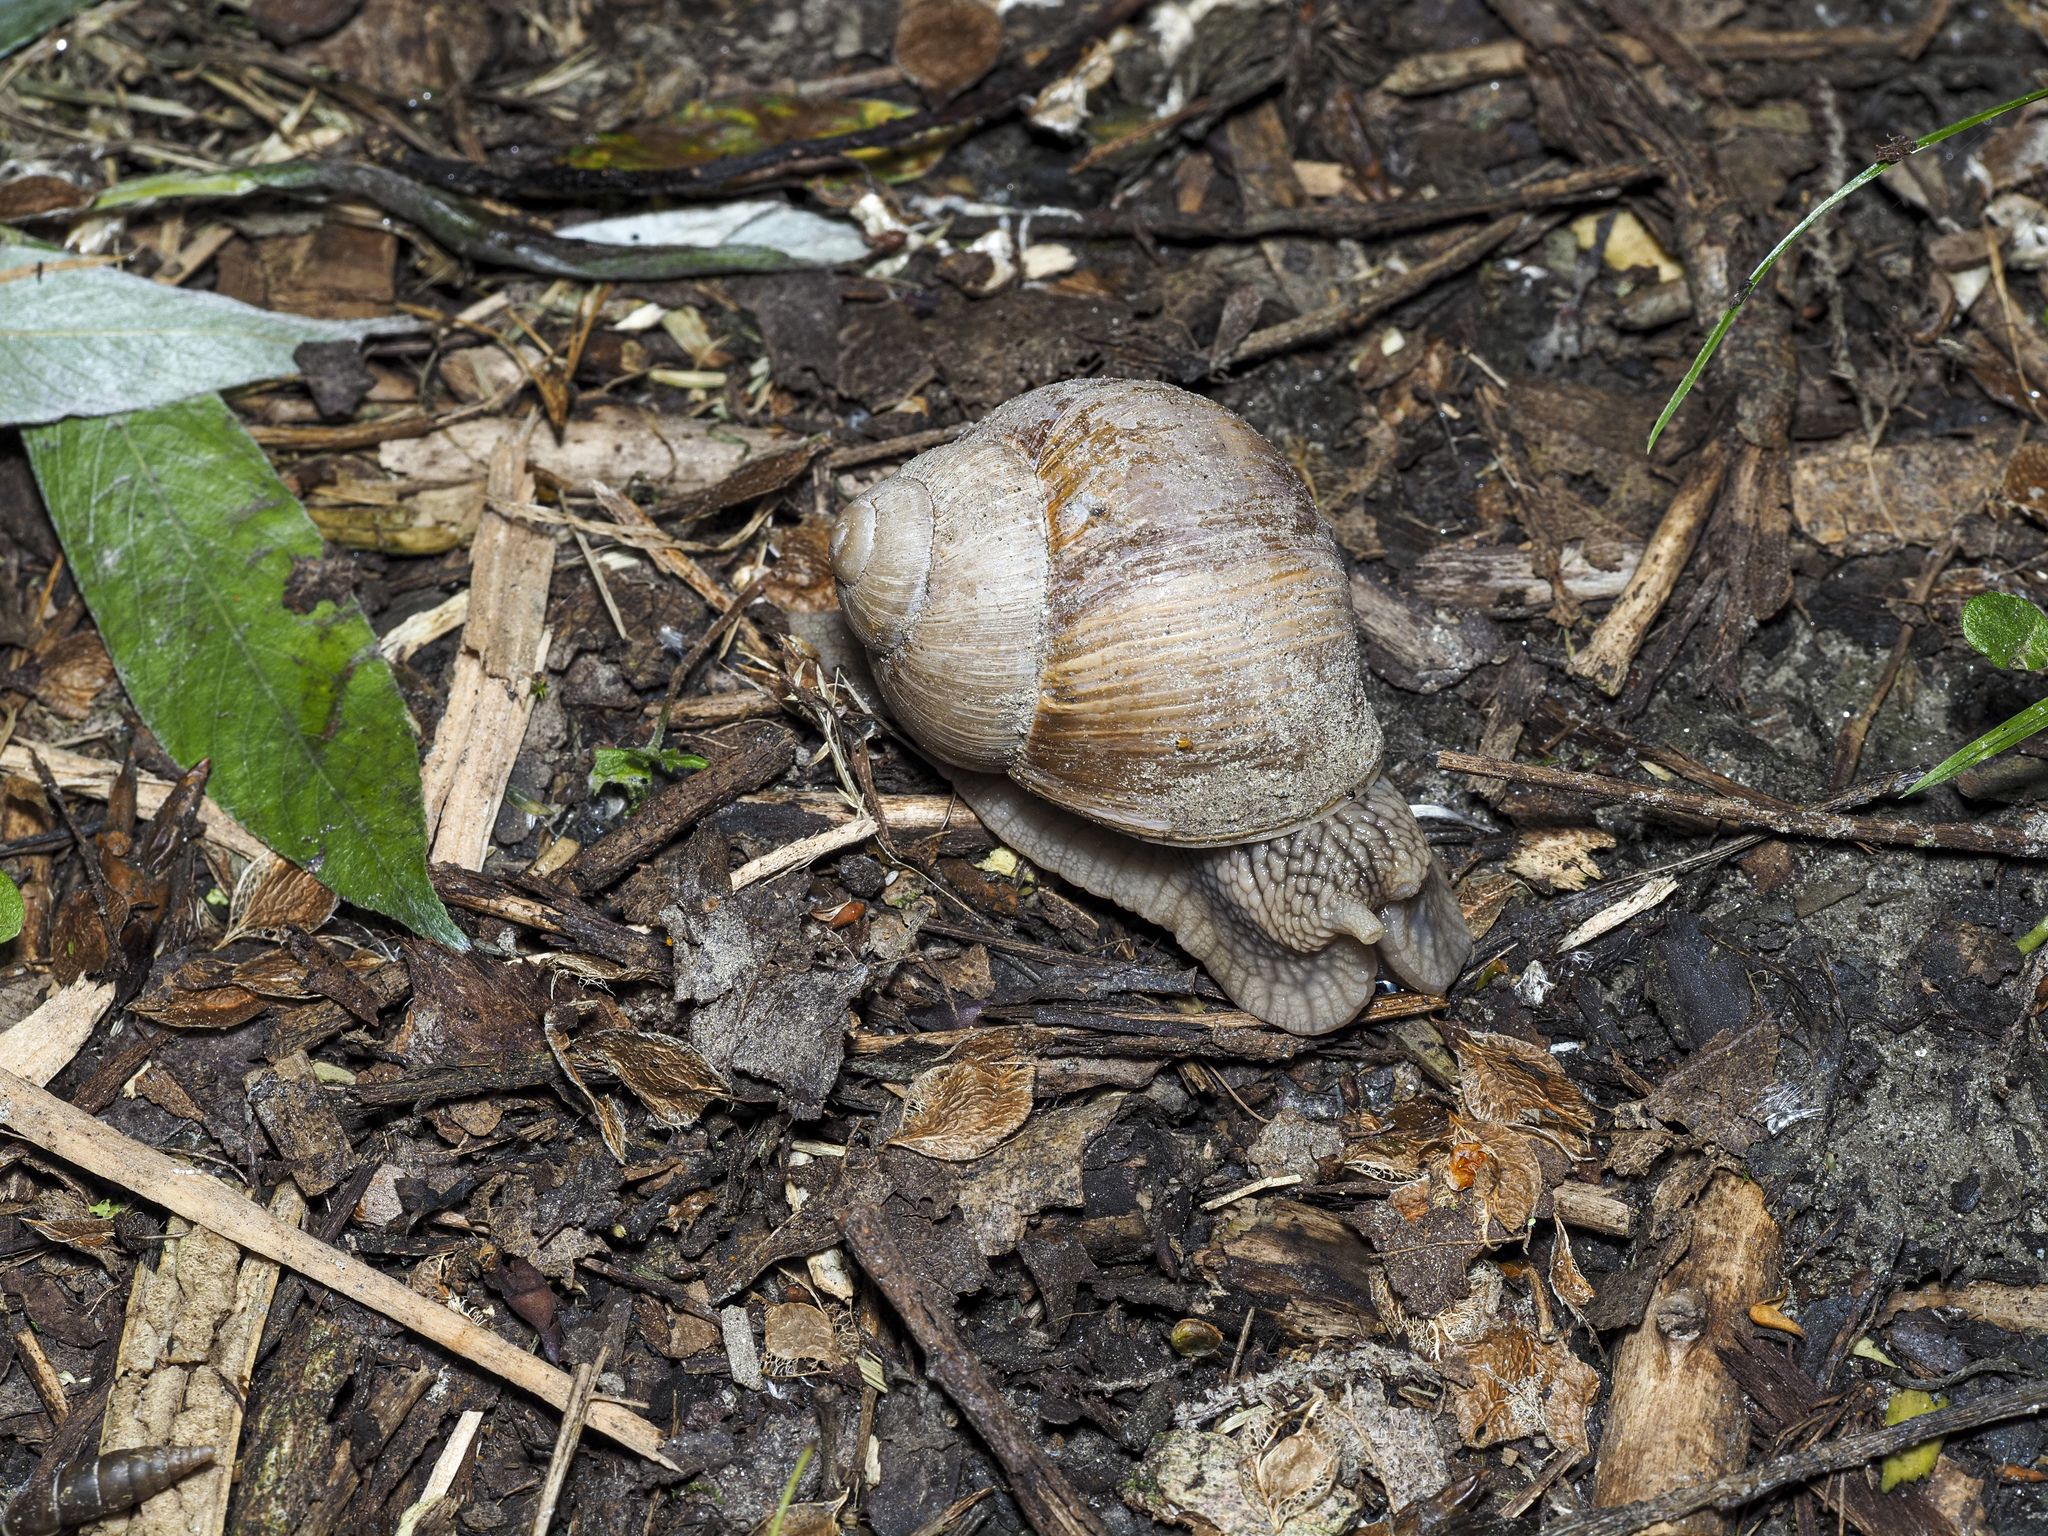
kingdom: Animalia
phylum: Mollusca
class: Gastropoda
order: Stylommatophora
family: Helicidae
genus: Helix
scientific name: Helix pomatia
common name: Roman snail
